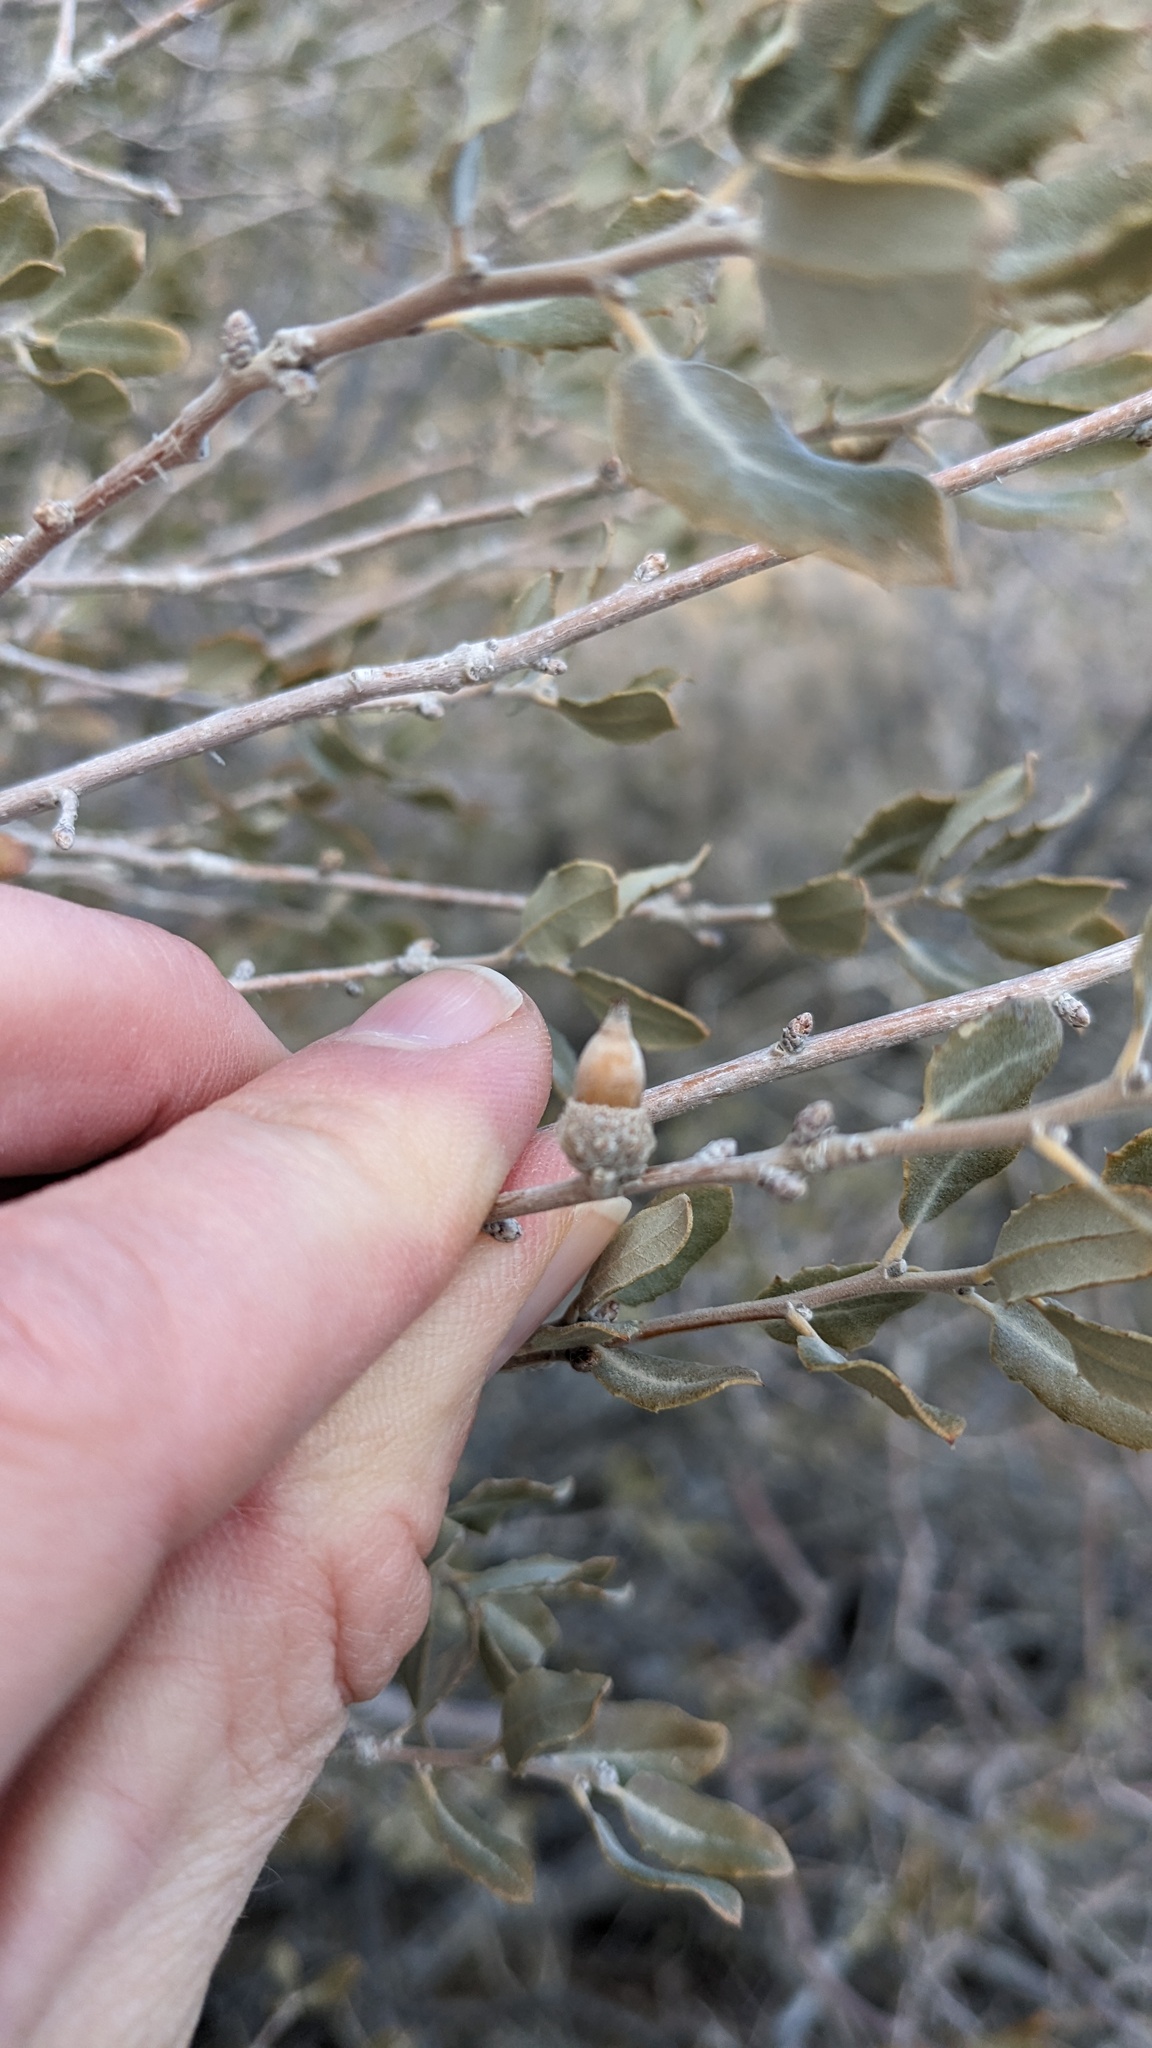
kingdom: Plantae
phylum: Tracheophyta
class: Magnoliopsida
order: Fagales
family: Fagaceae
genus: Quercus
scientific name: Quercus cornelius-mulleri
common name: Muller oak
